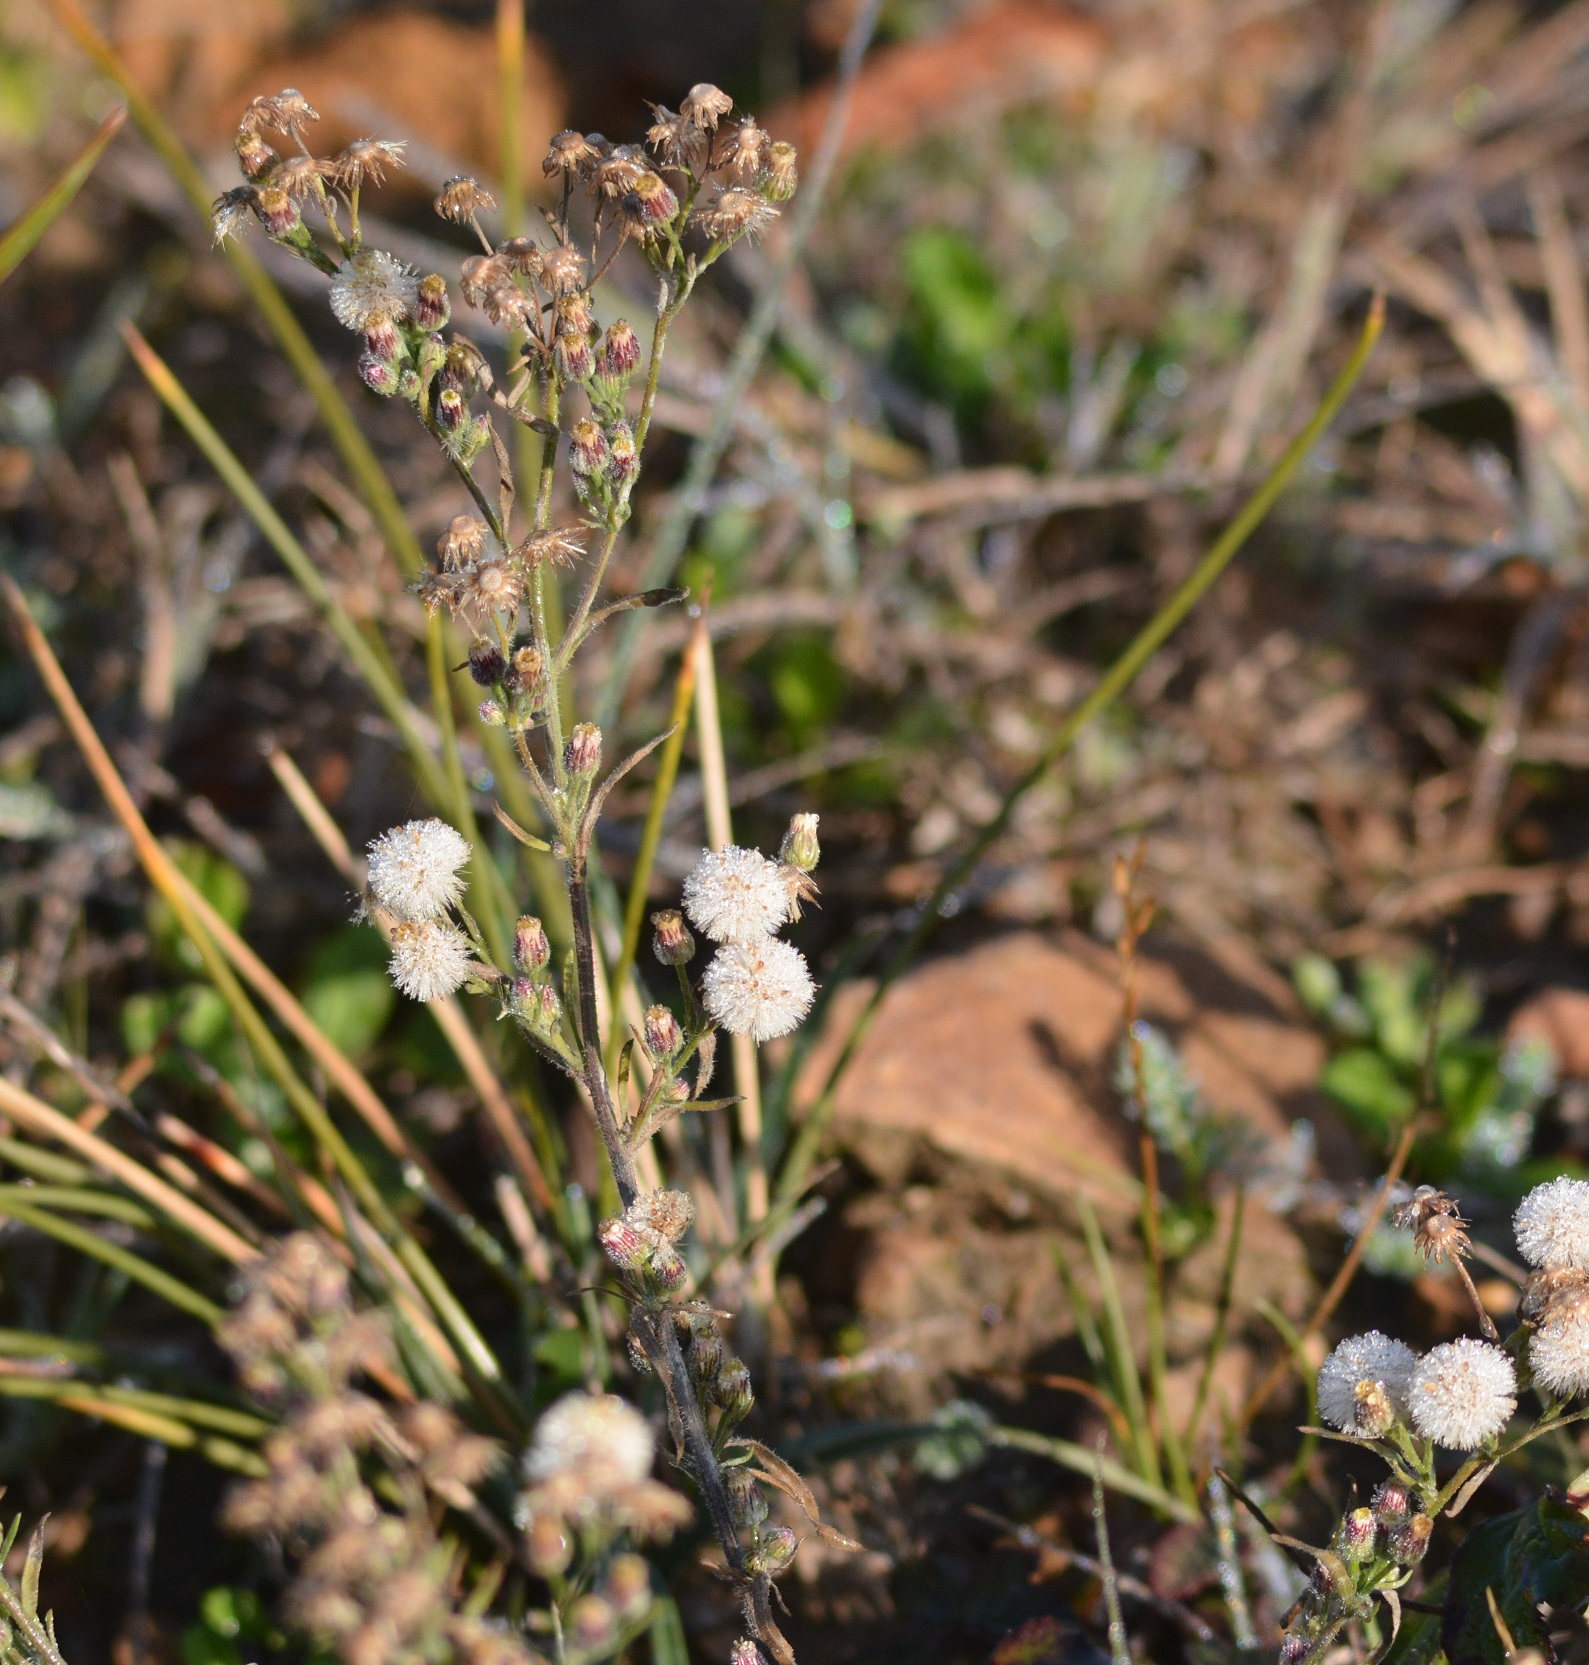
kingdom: Plantae
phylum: Tracheophyta
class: Magnoliopsida
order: Asterales
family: Asteraceae
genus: Erigeron
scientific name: Erigeron bonariensis
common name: Argentine fleabane
